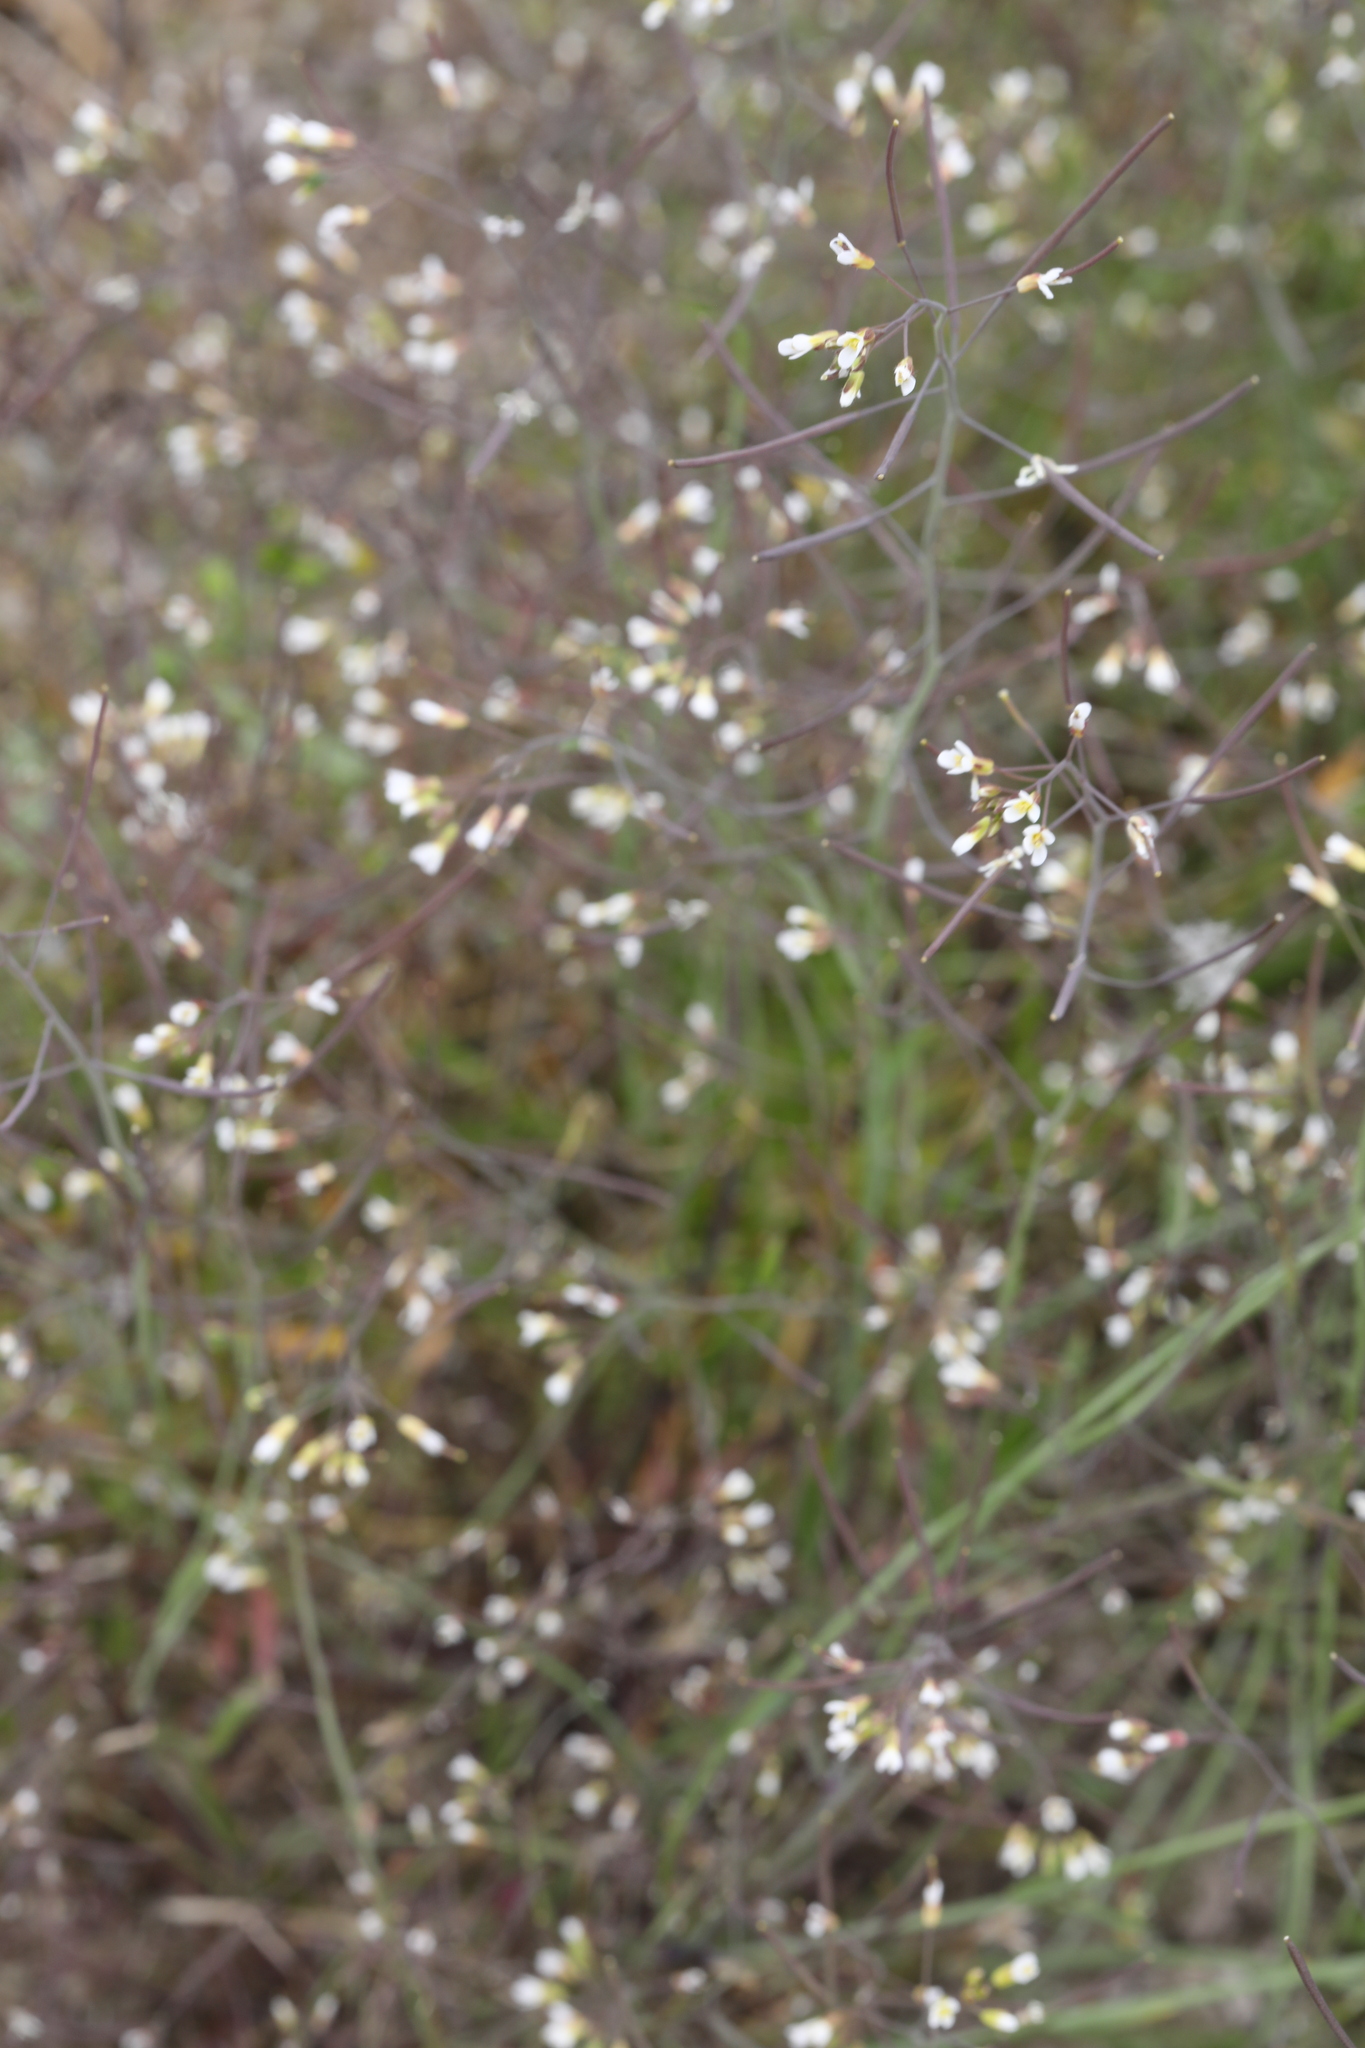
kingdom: Plantae
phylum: Tracheophyta
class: Magnoliopsida
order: Brassicales
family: Brassicaceae
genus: Arabidopsis
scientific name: Arabidopsis thaliana
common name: Thale cress
